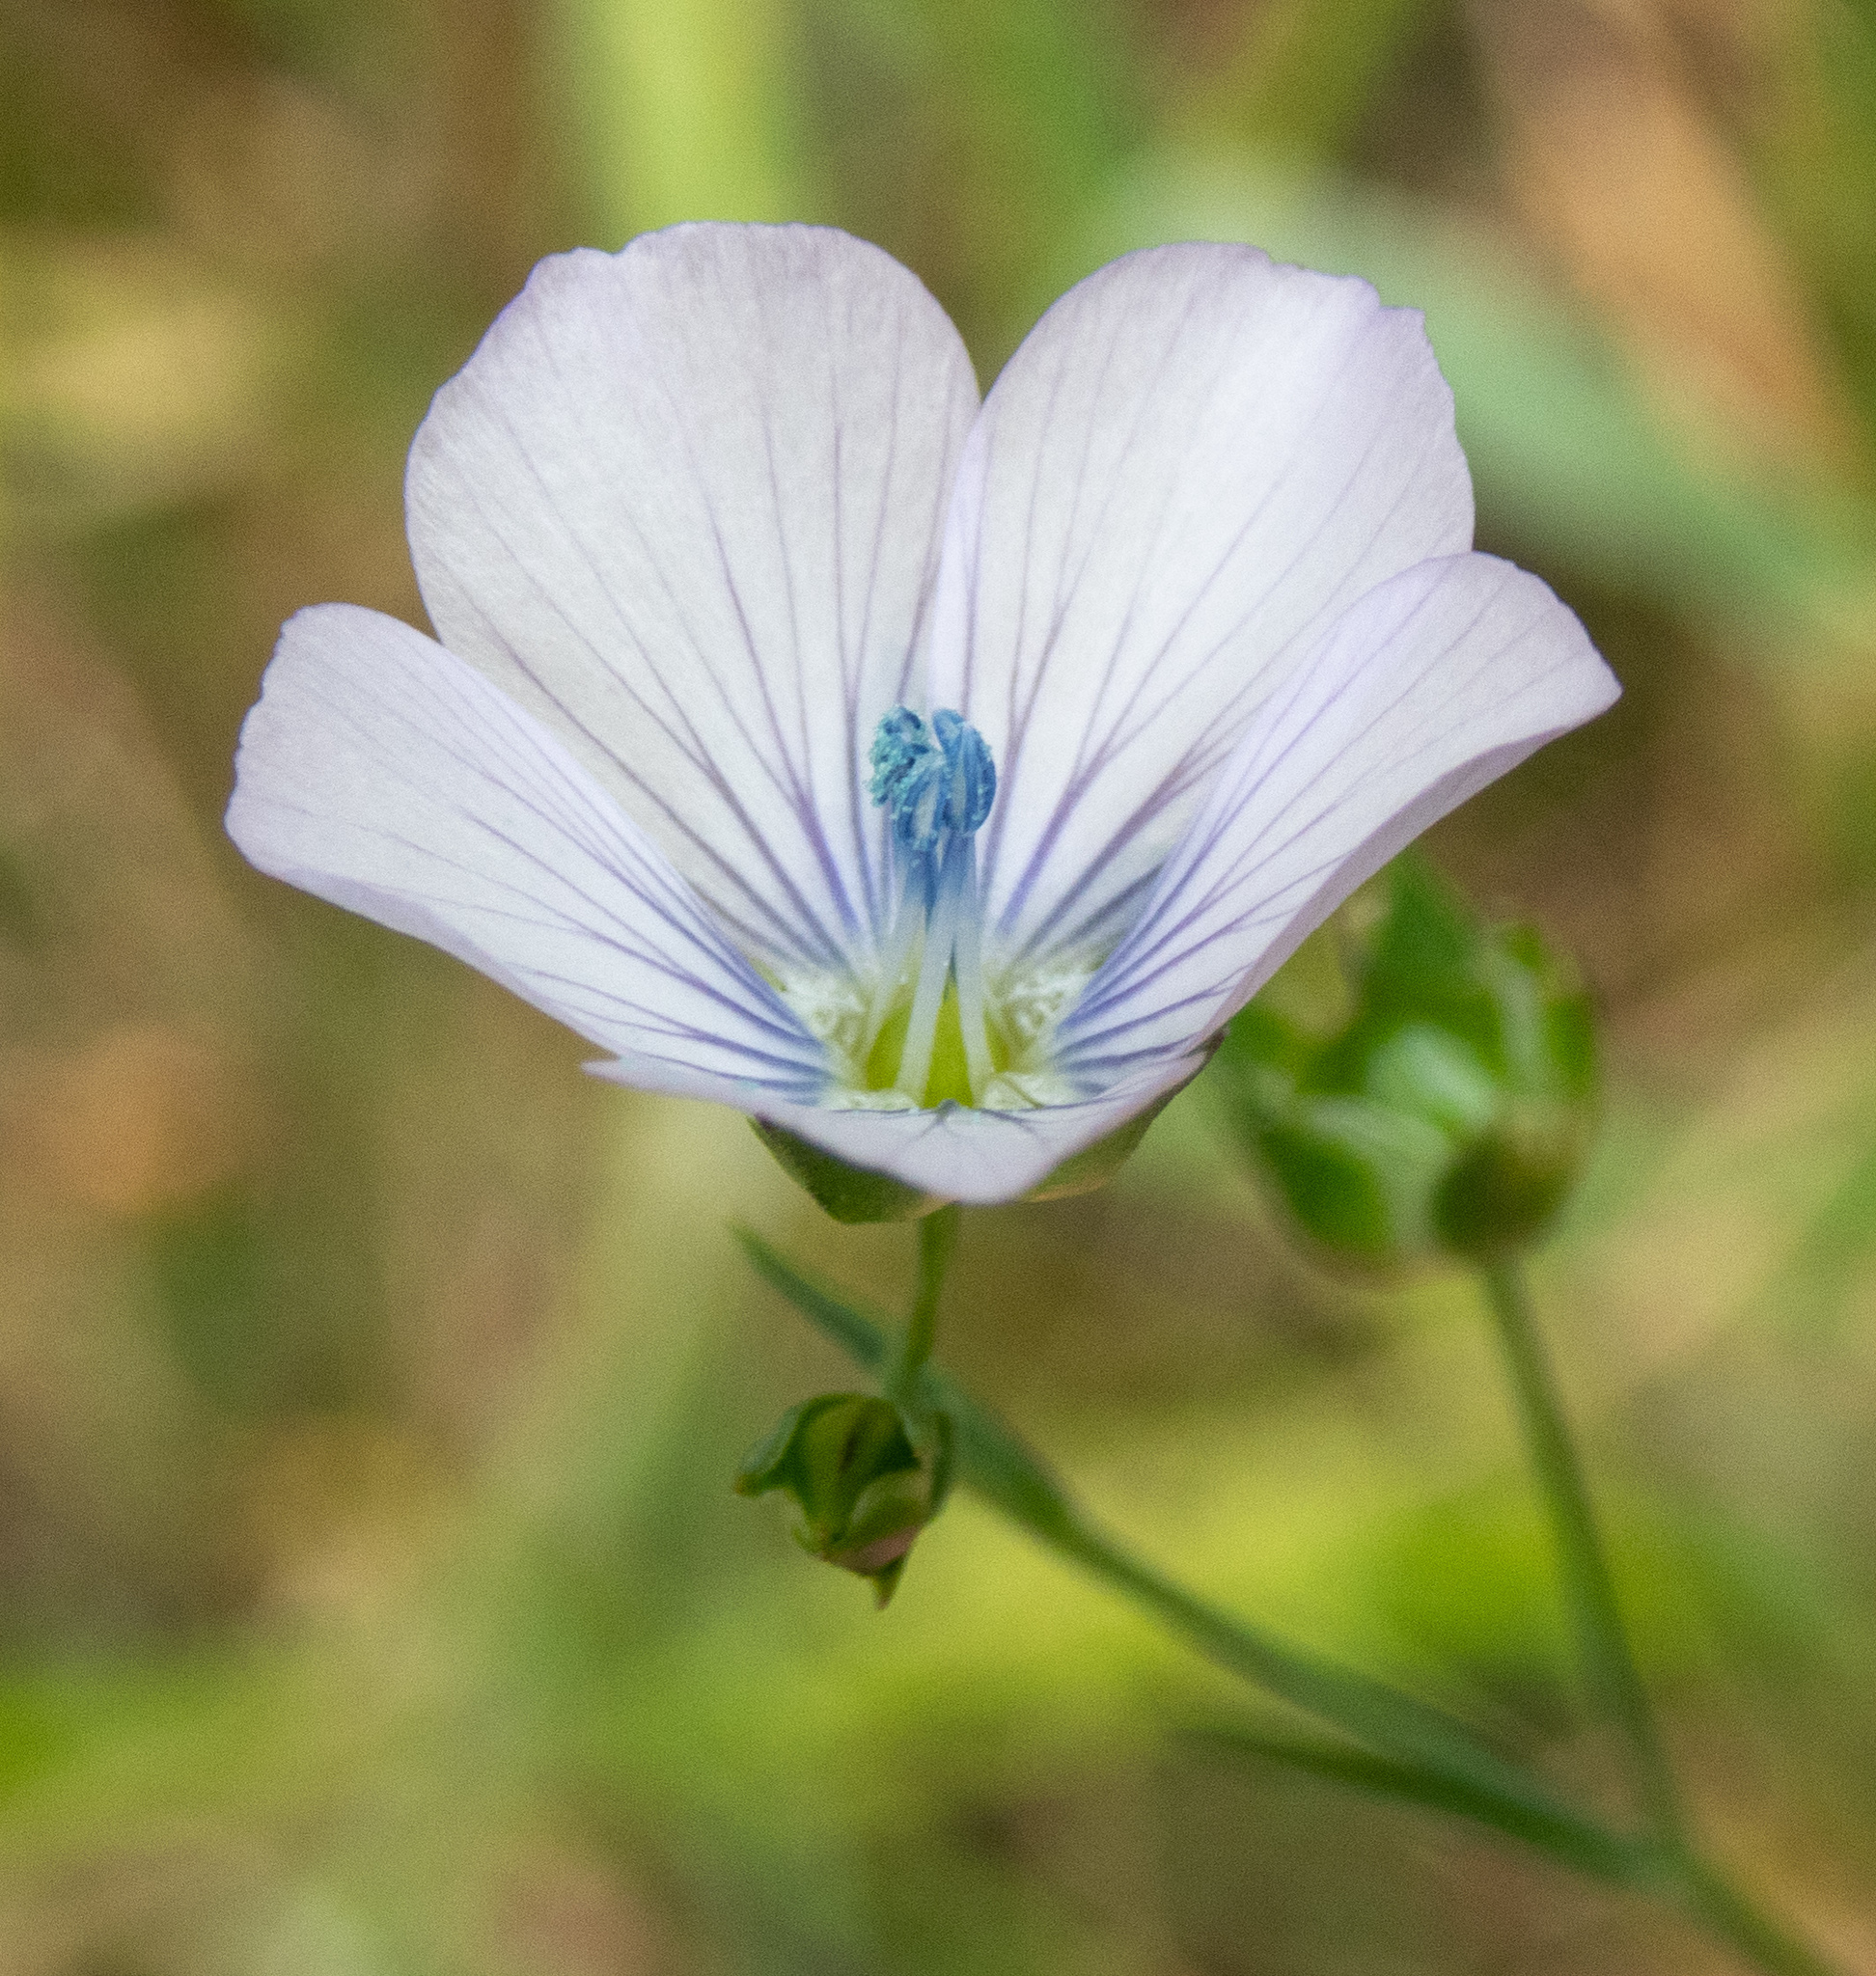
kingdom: Plantae
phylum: Tracheophyta
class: Magnoliopsida
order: Malpighiales
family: Linaceae
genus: Linum
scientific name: Linum bienne
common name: Pale flax
